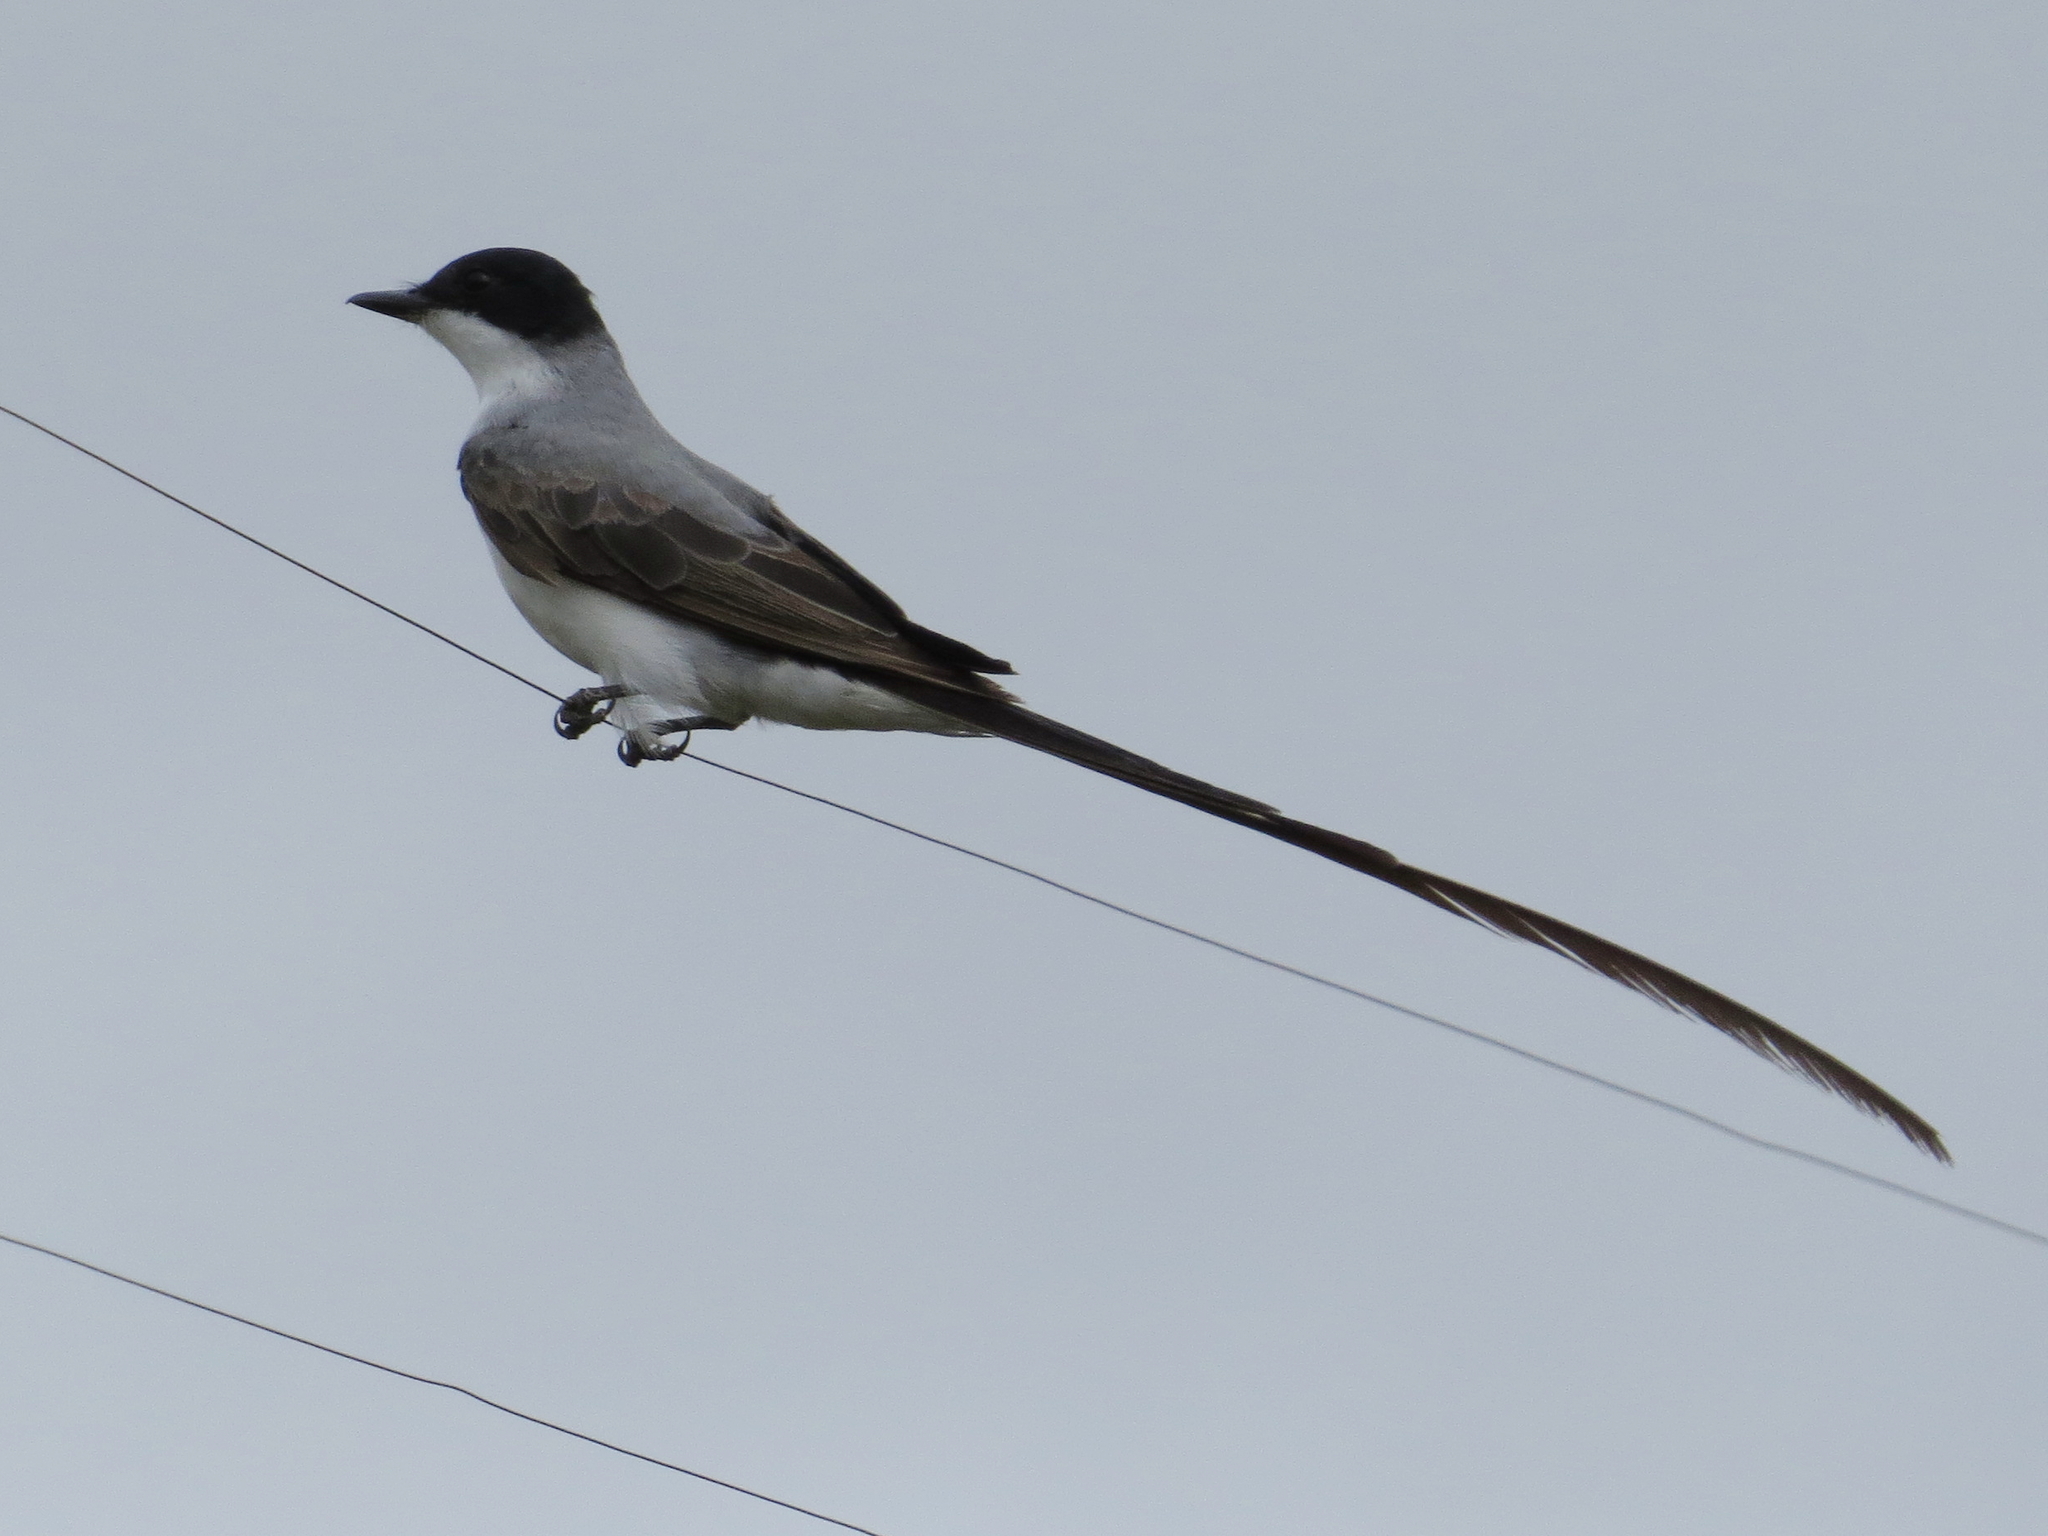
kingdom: Animalia
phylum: Chordata
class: Aves
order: Passeriformes
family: Tyrannidae
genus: Tyrannus
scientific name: Tyrannus savana
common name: Fork-tailed flycatcher
